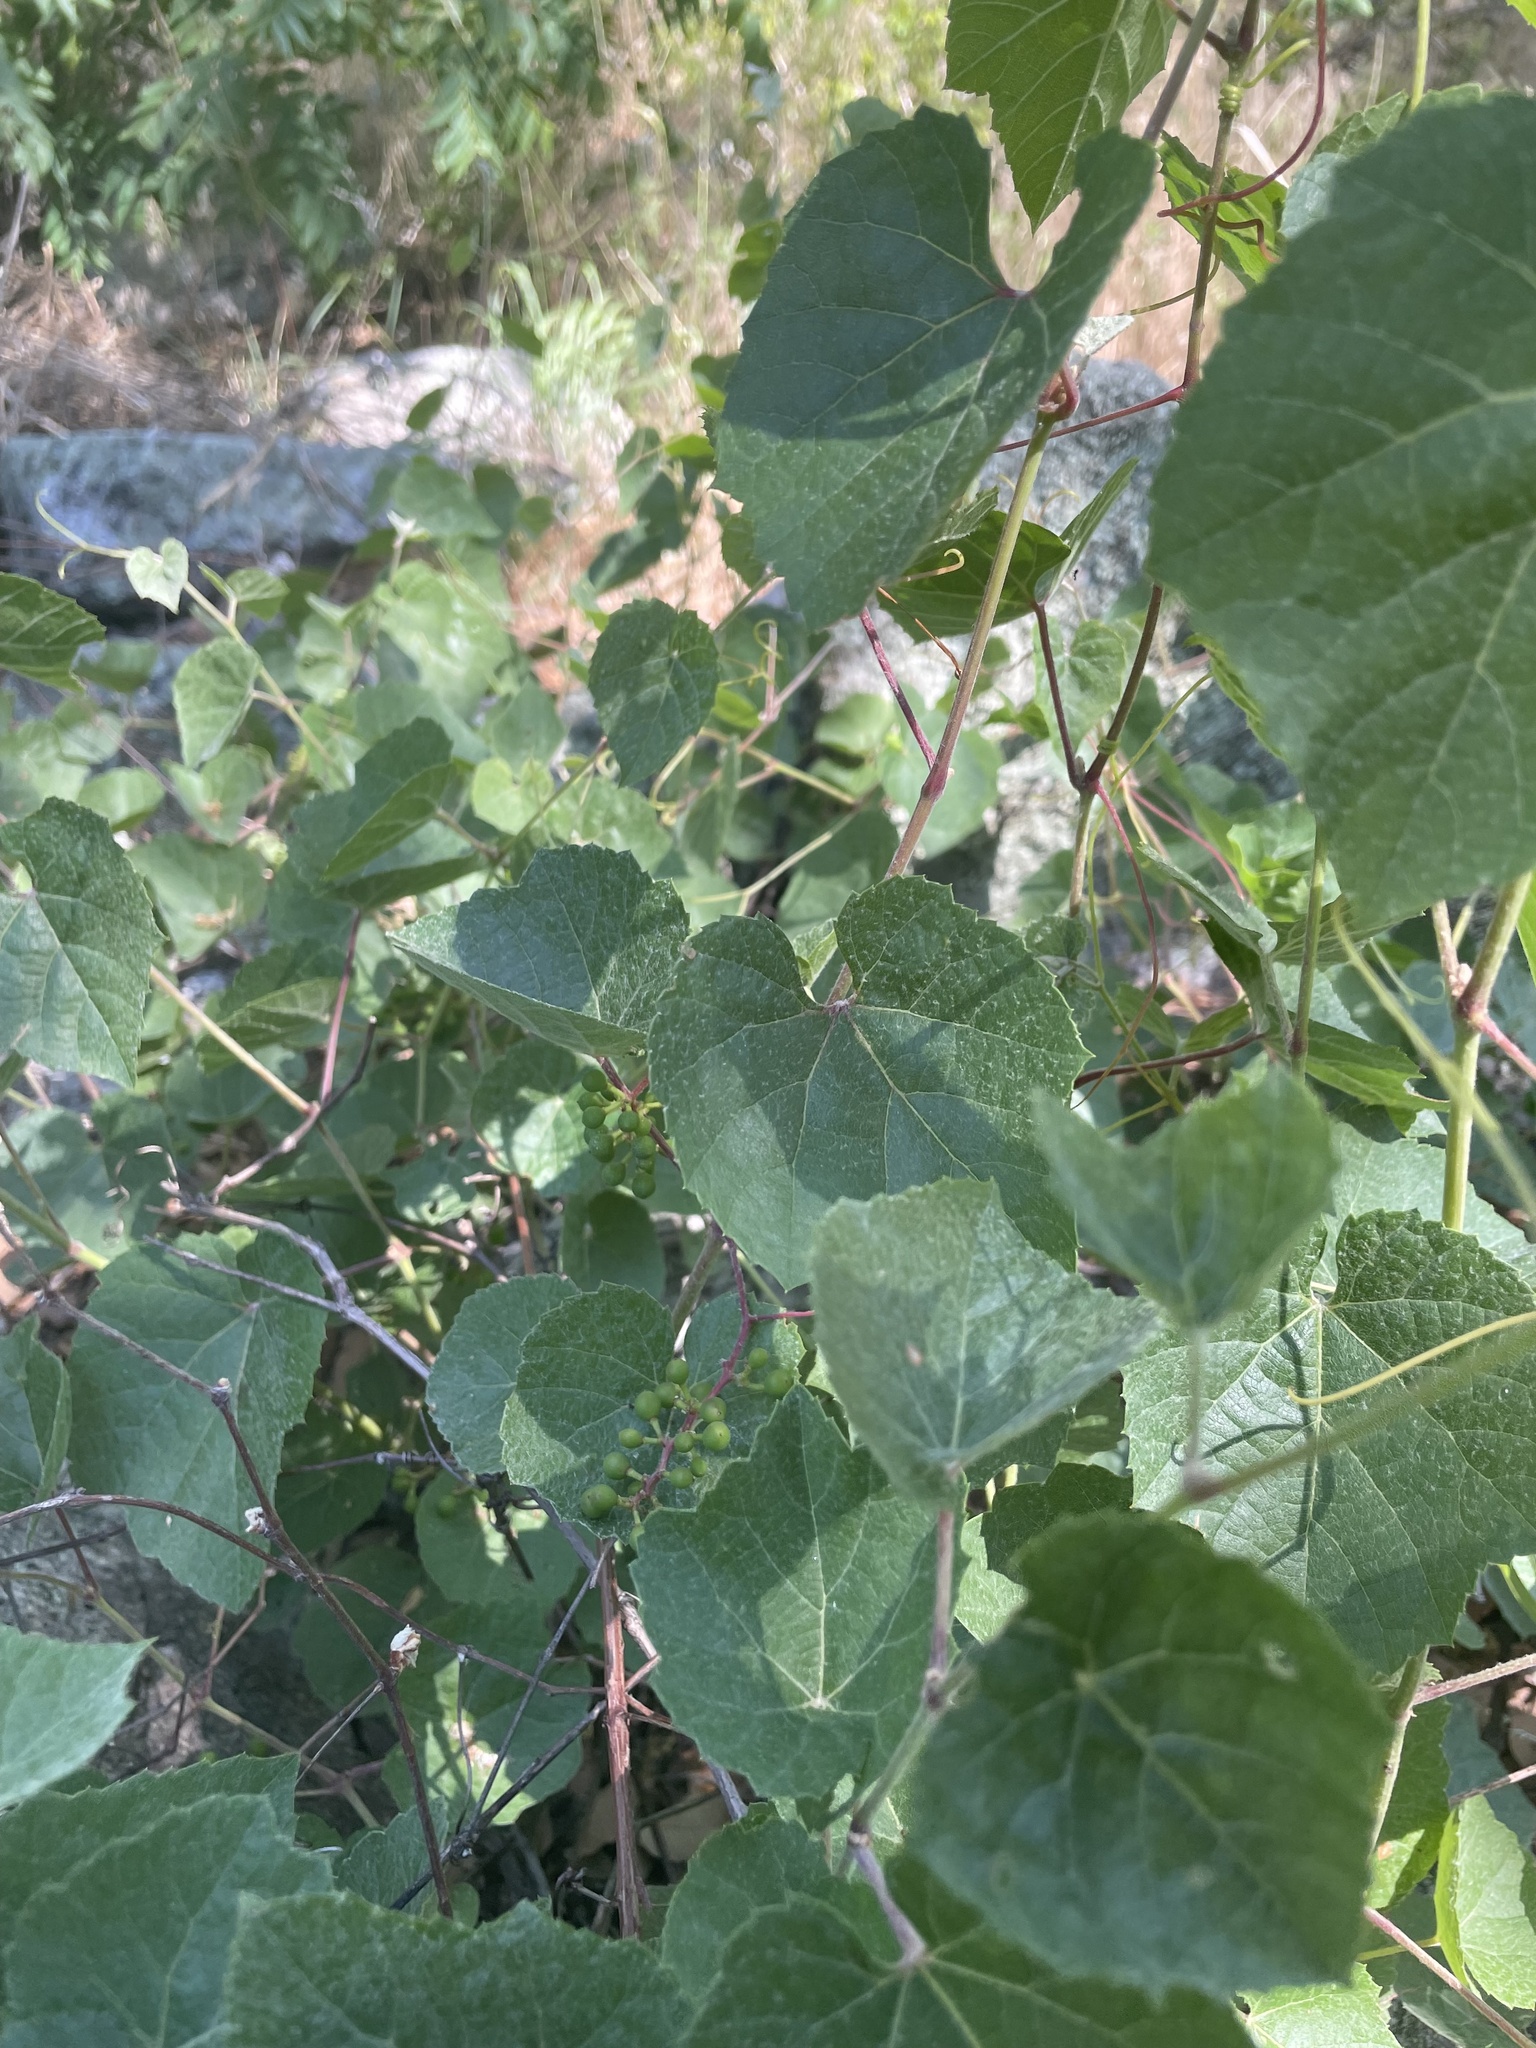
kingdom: Plantae
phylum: Tracheophyta
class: Magnoliopsida
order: Vitales
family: Vitaceae
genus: Vitis
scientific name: Vitis arizonica
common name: Canyon grape
